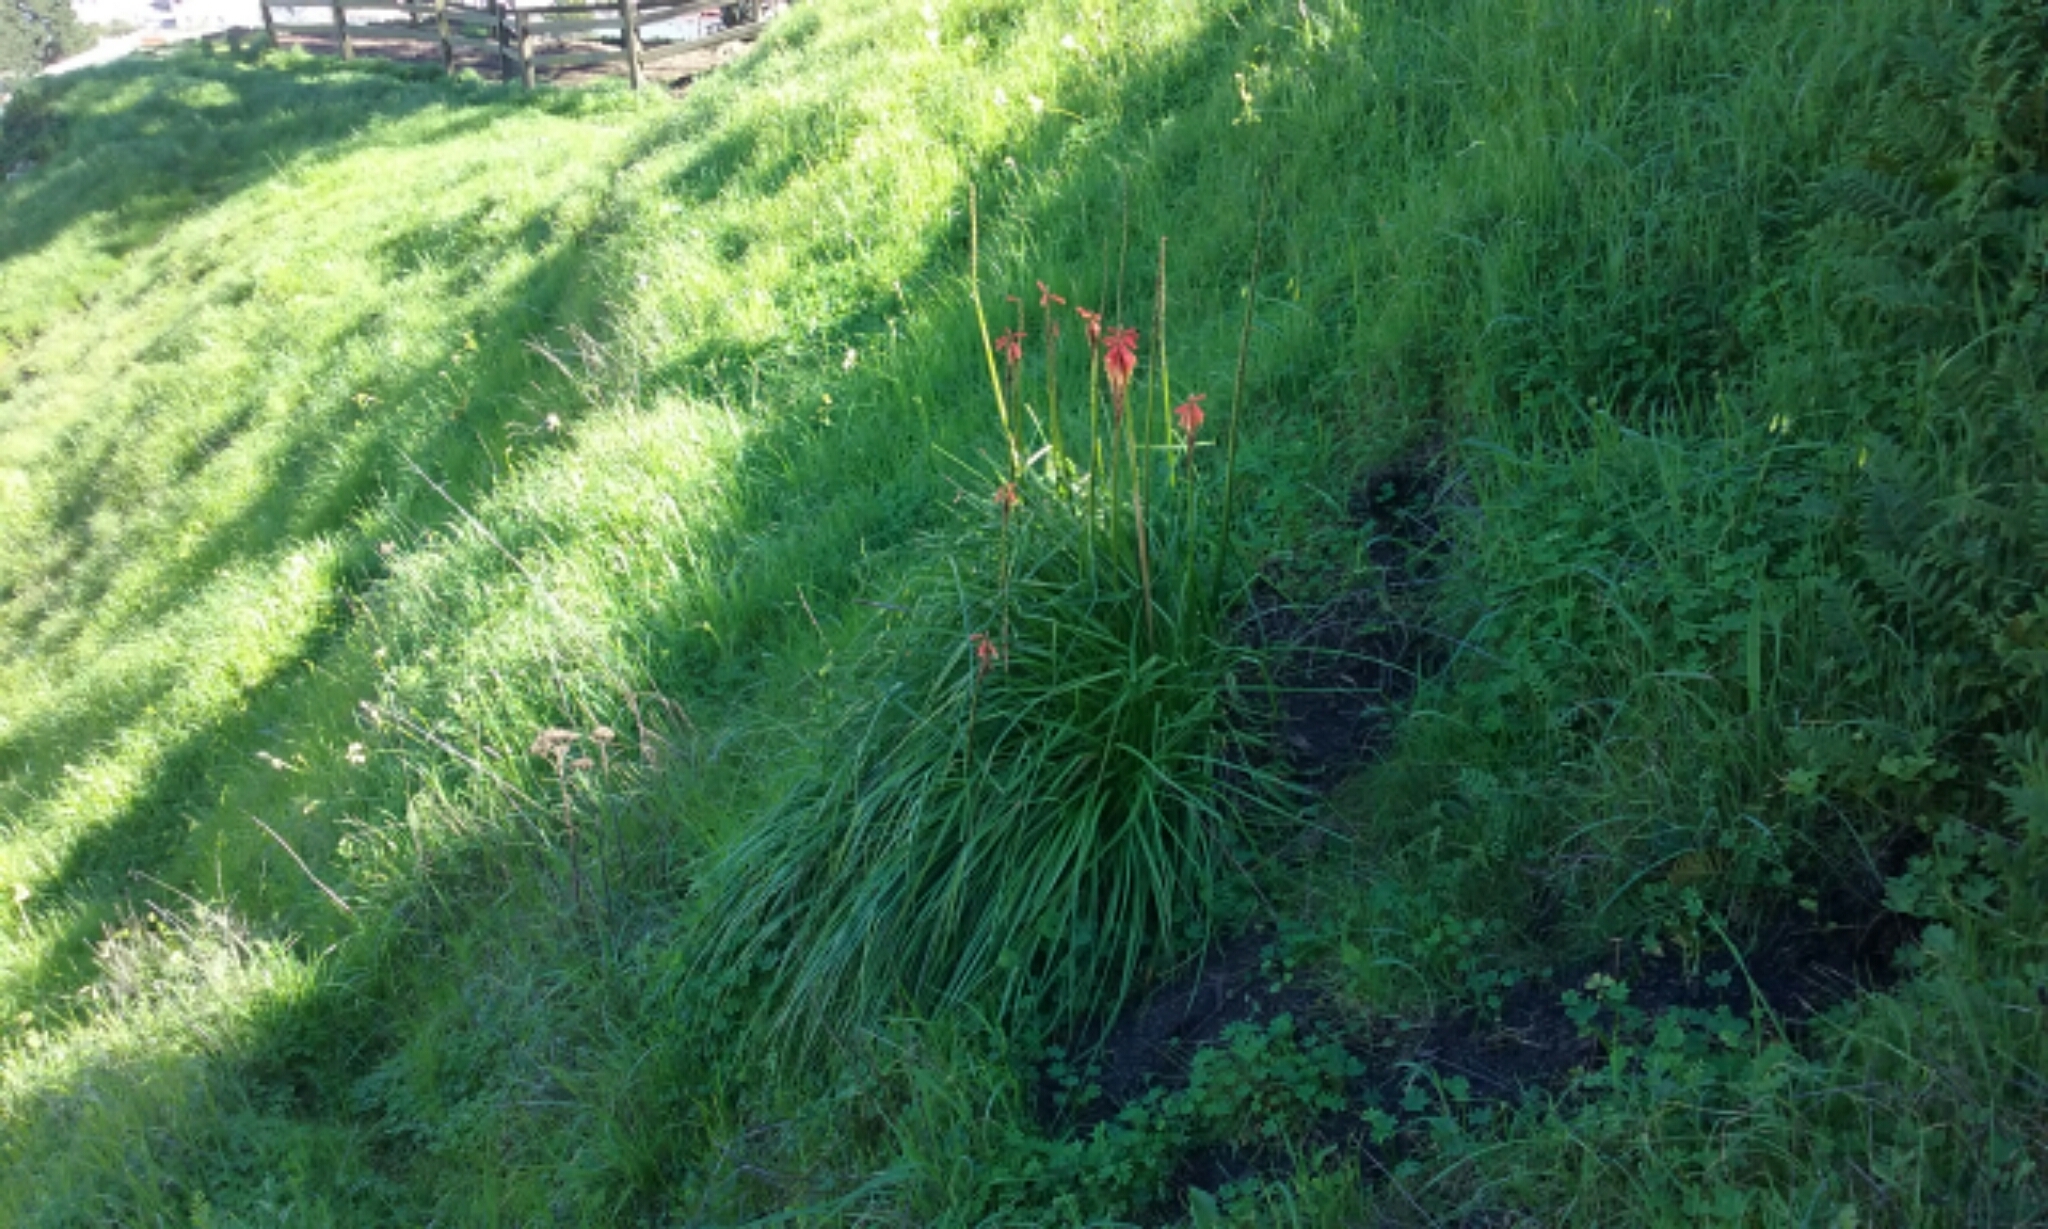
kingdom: Plantae
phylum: Tracheophyta
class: Liliopsida
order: Asparagales
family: Asphodelaceae
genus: Kniphofia
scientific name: Kniphofia uvaria
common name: Red-hot-poker
